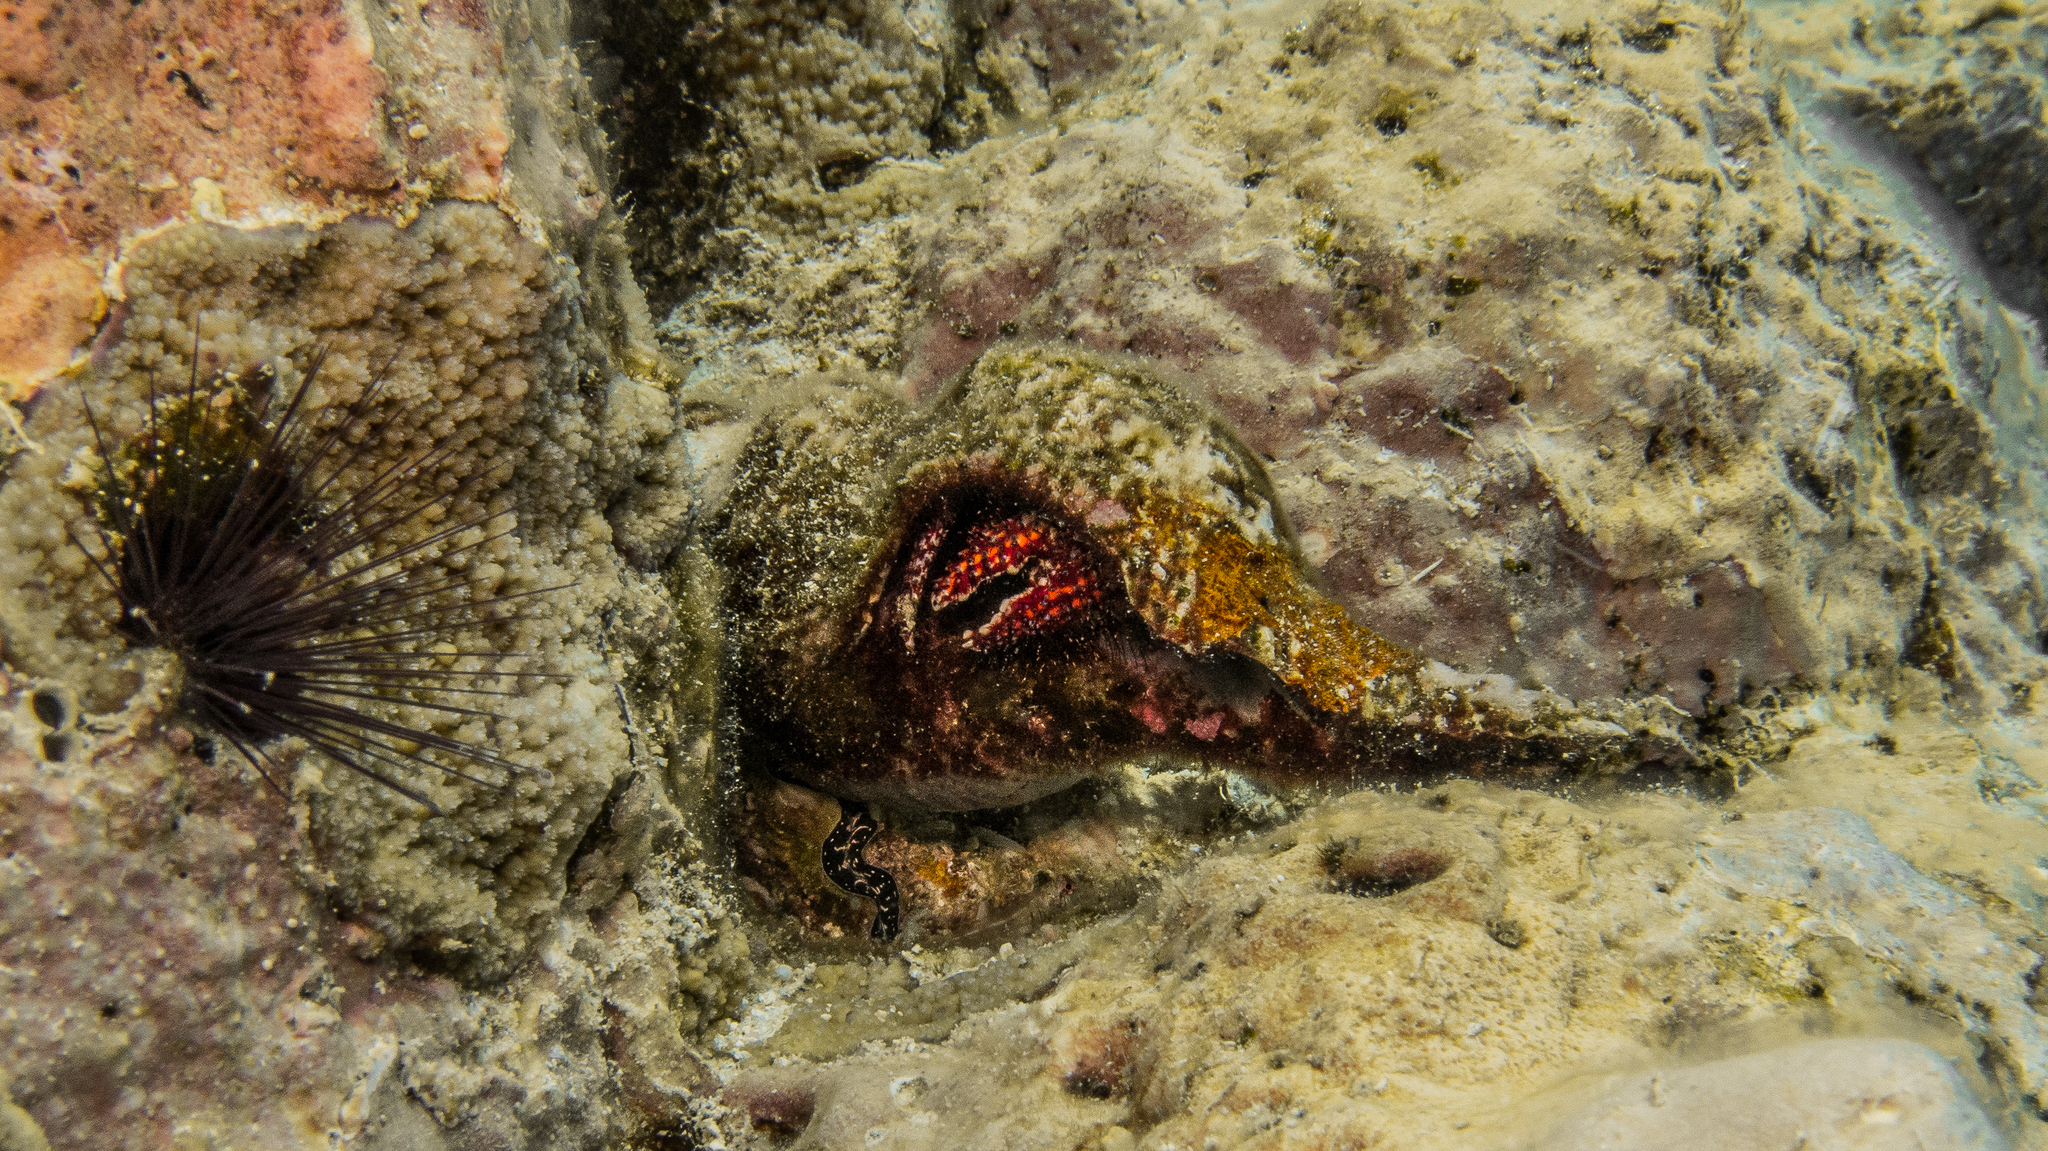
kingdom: Animalia
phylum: Arthropoda
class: Malacostraca
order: Decapoda
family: Diogenidae
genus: Dardanus
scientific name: Dardanus lagopodes
